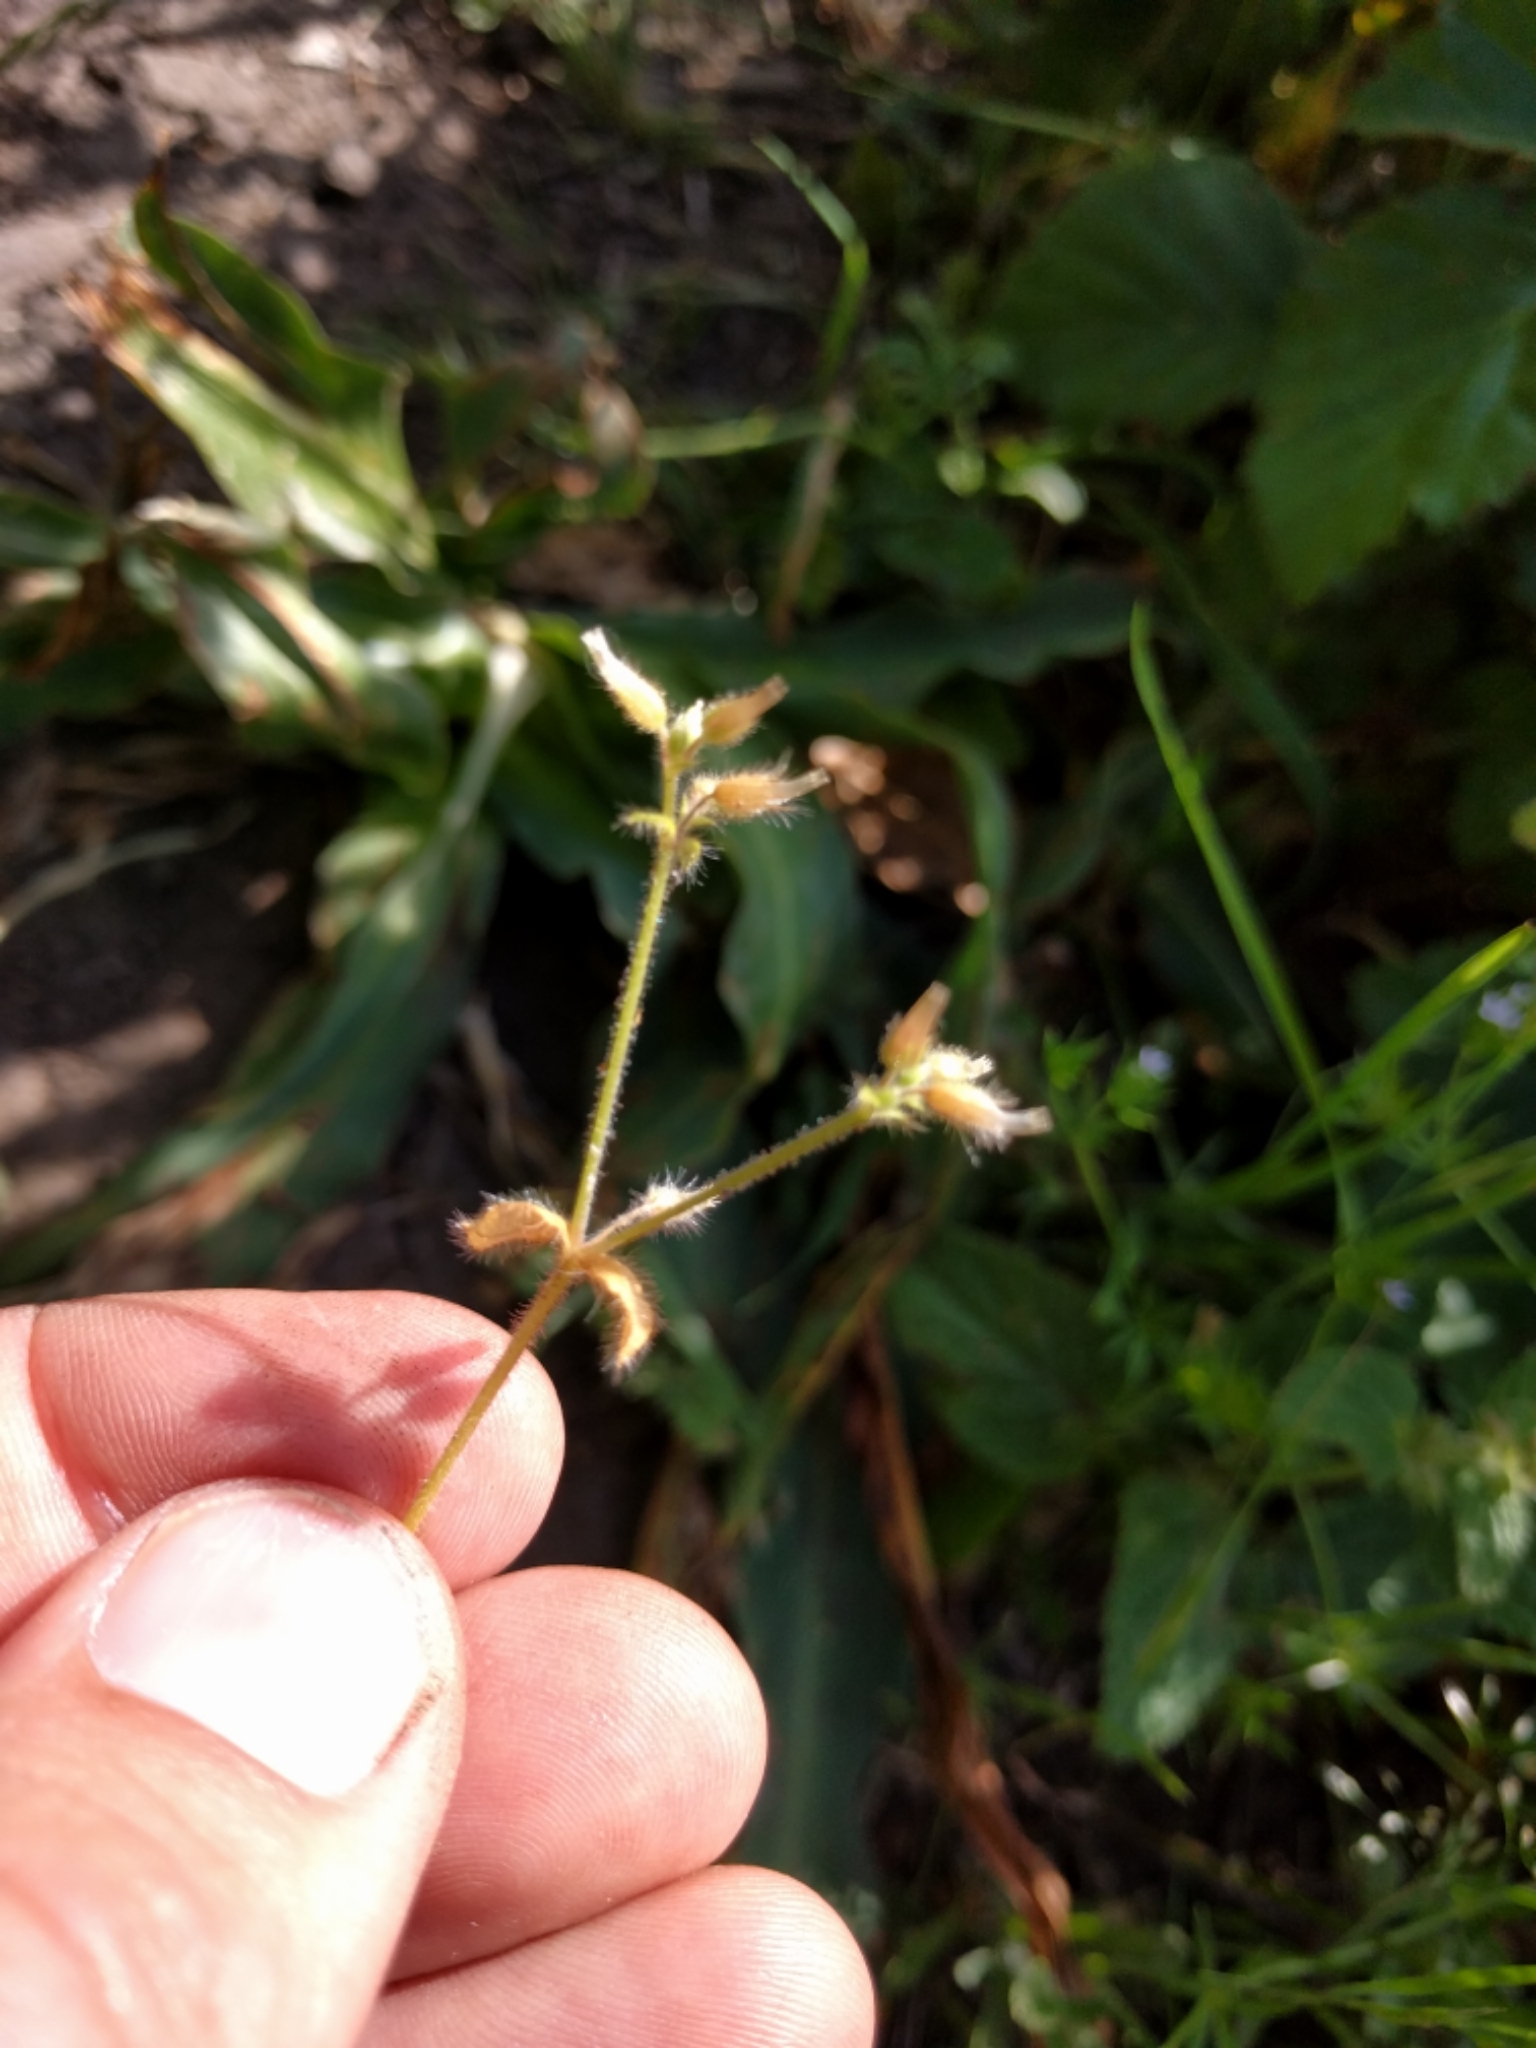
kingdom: Plantae
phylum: Tracheophyta
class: Magnoliopsida
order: Caryophyllales
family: Caryophyllaceae
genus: Cerastium
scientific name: Cerastium glomeratum
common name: Sticky chickweed
